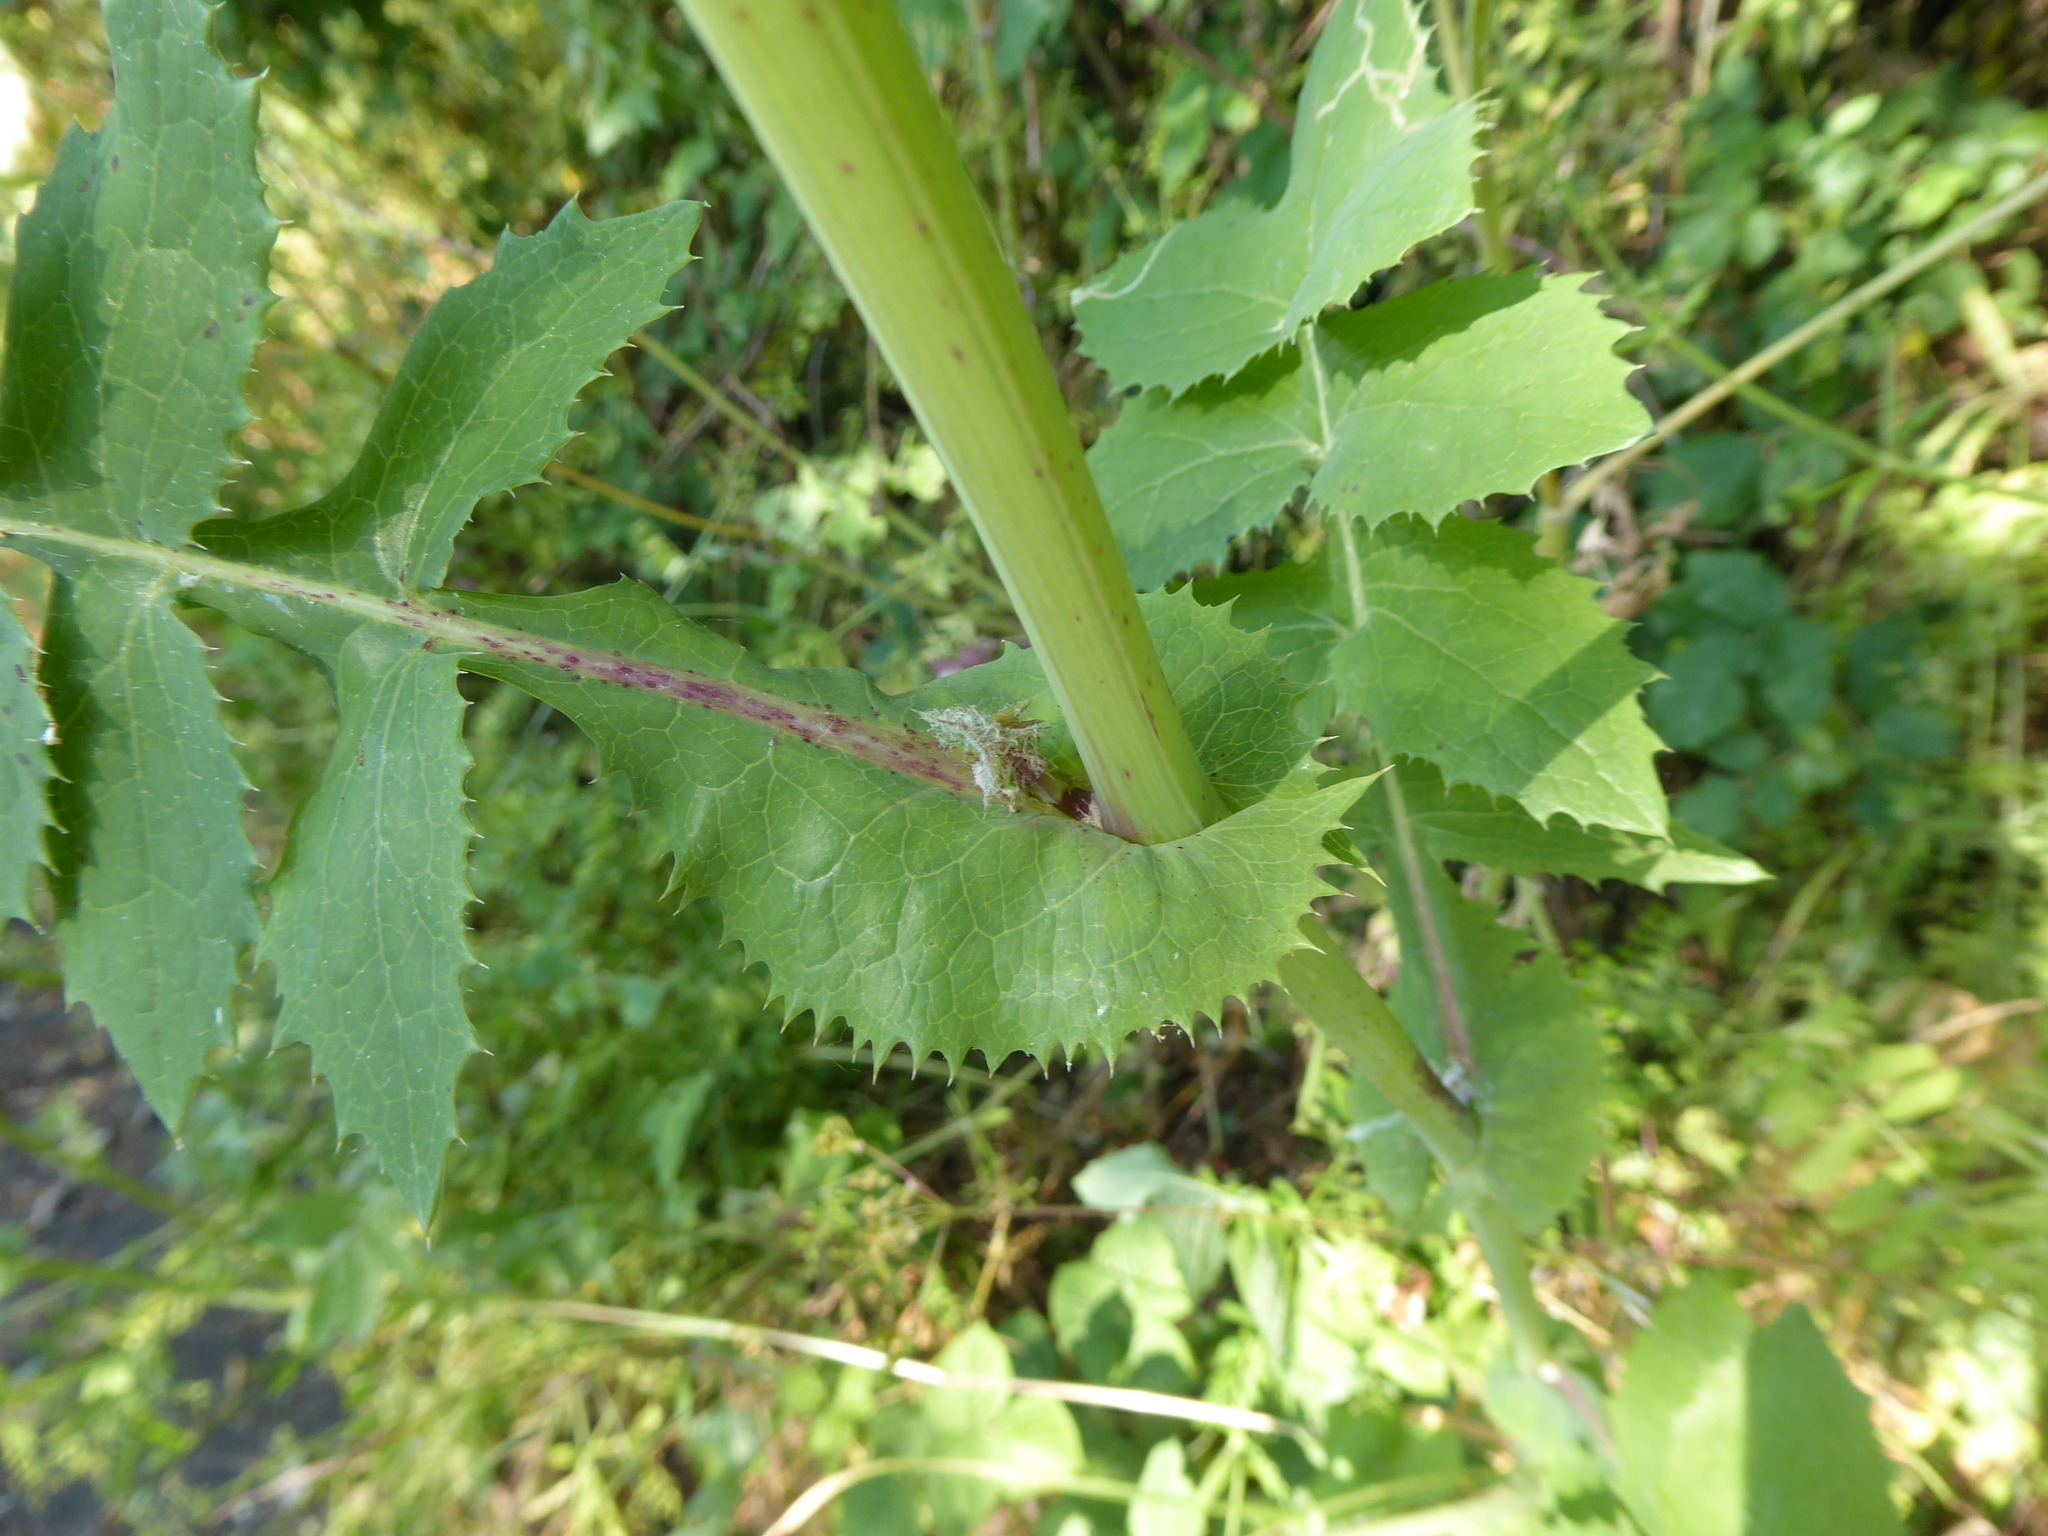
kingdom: Plantae
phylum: Tracheophyta
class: Magnoliopsida
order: Asterales
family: Asteraceae
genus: Sonchus
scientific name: Sonchus oleraceus
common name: Common sowthistle
